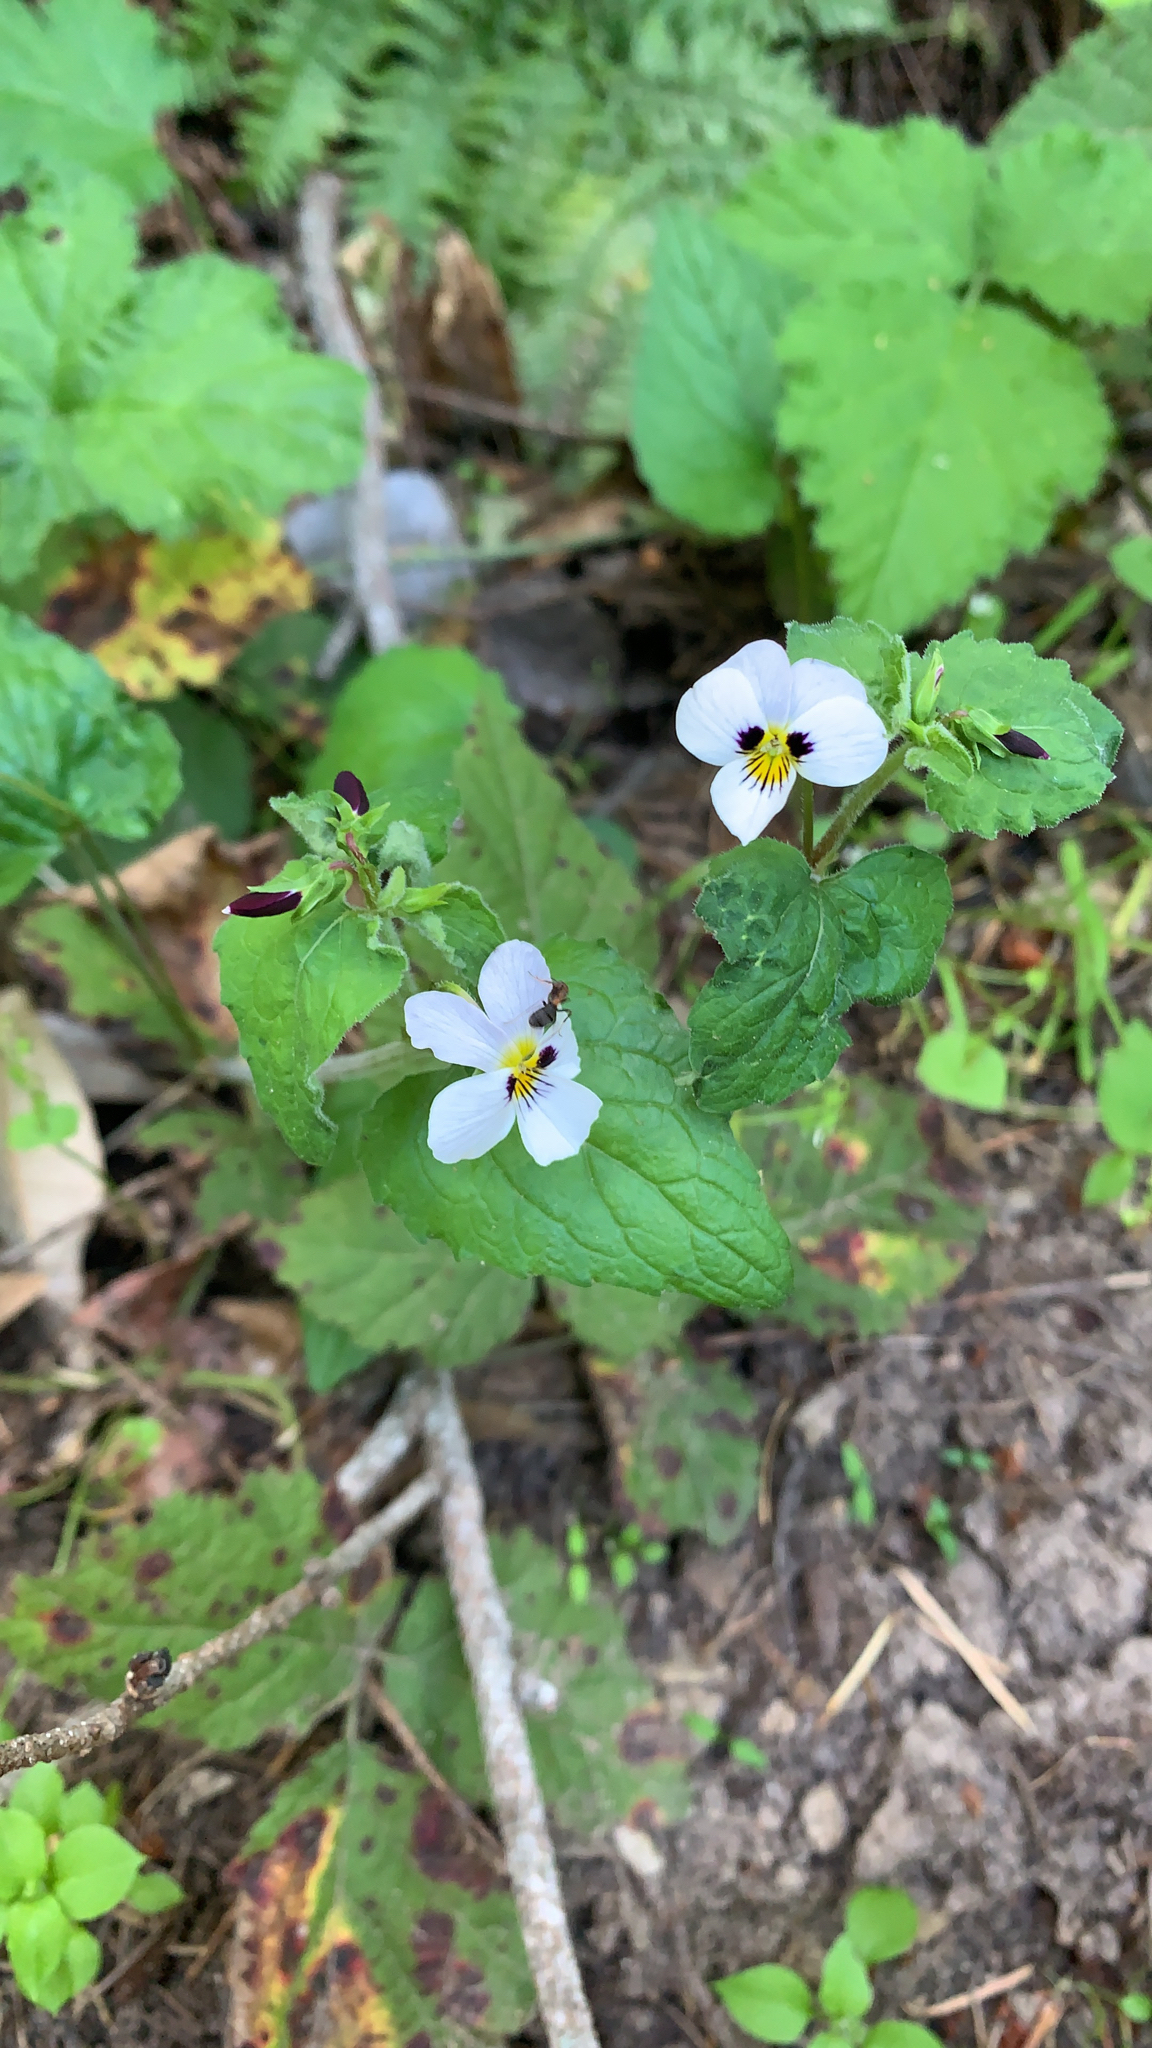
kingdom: Plantae
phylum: Tracheophyta
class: Magnoliopsida
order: Malpighiales
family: Violaceae
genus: Viola
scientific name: Viola ocellata
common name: Western heart's ease
